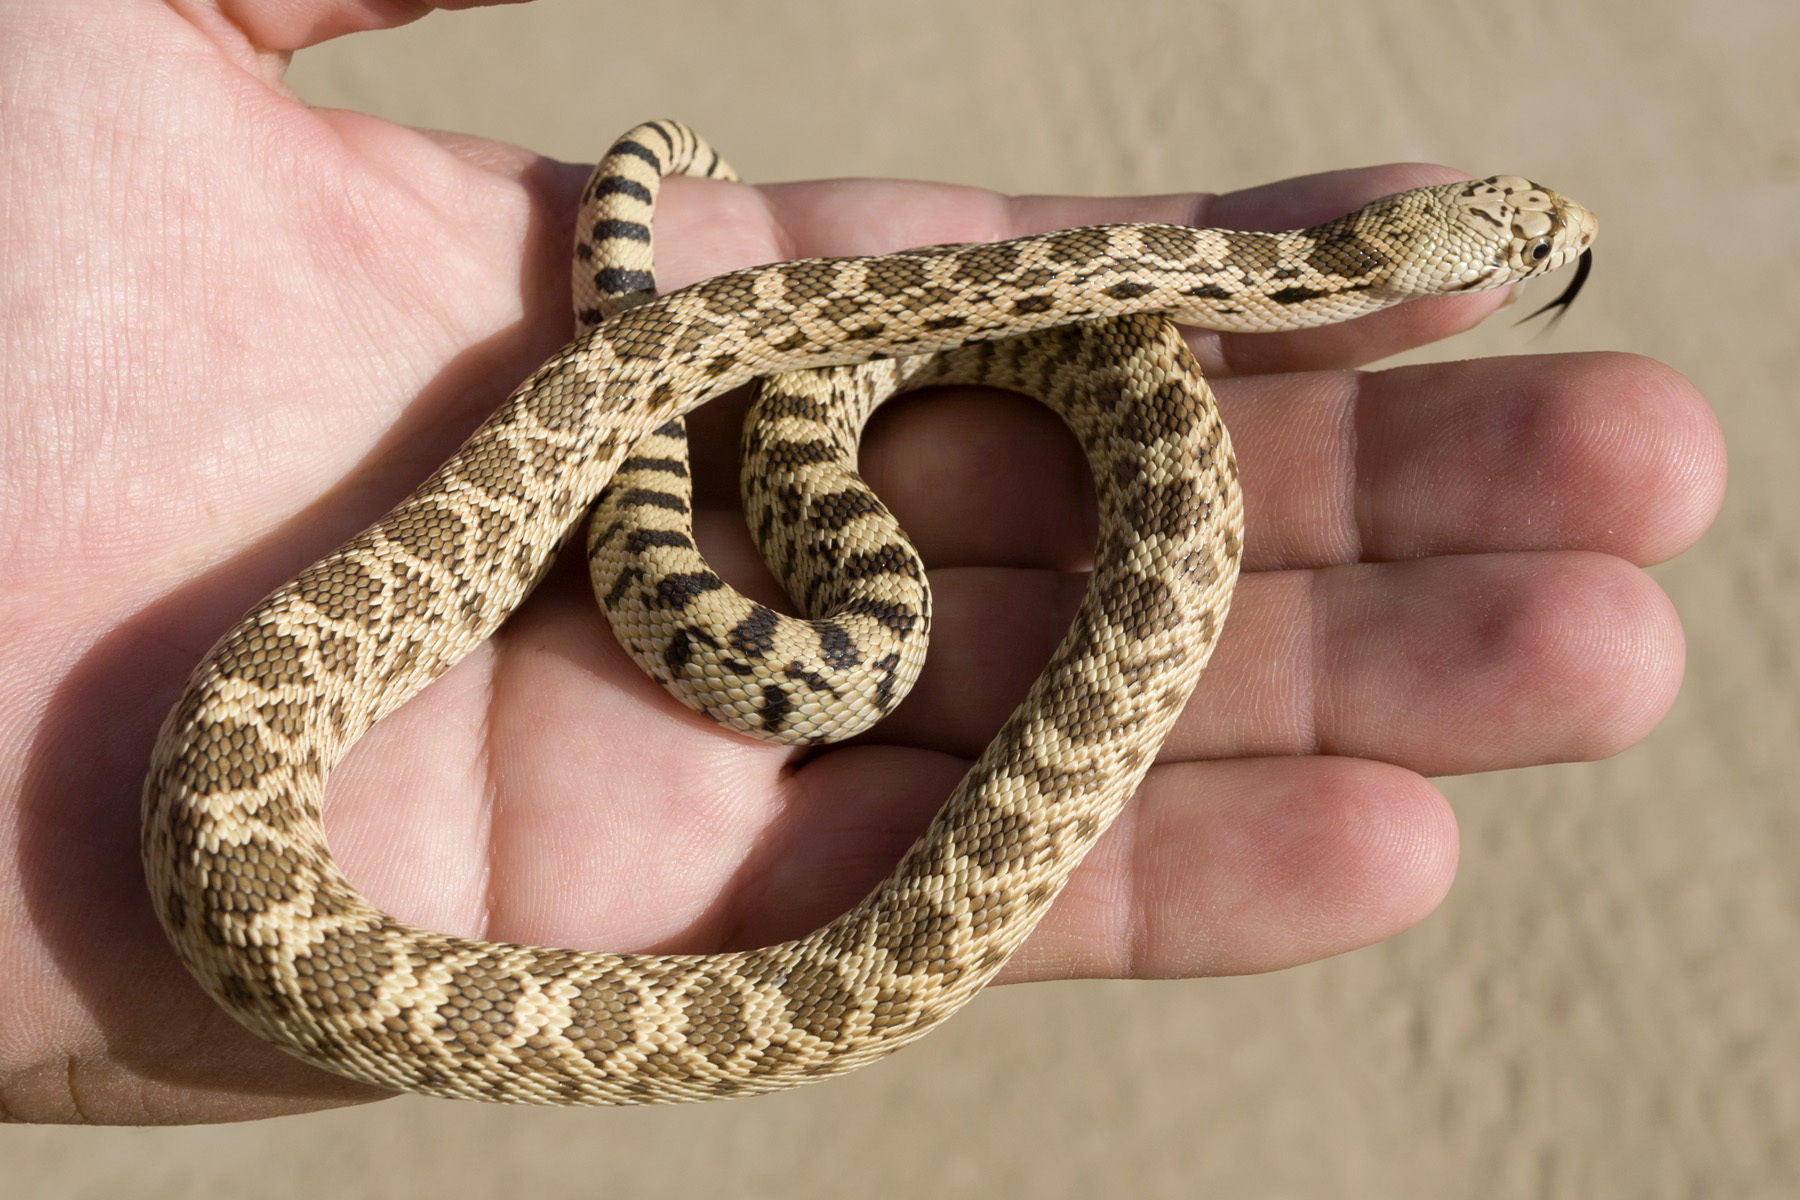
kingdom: Animalia
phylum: Chordata
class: Squamata
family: Colubridae
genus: Pituophis
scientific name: Pituophis catenifer
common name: Gopher snake
